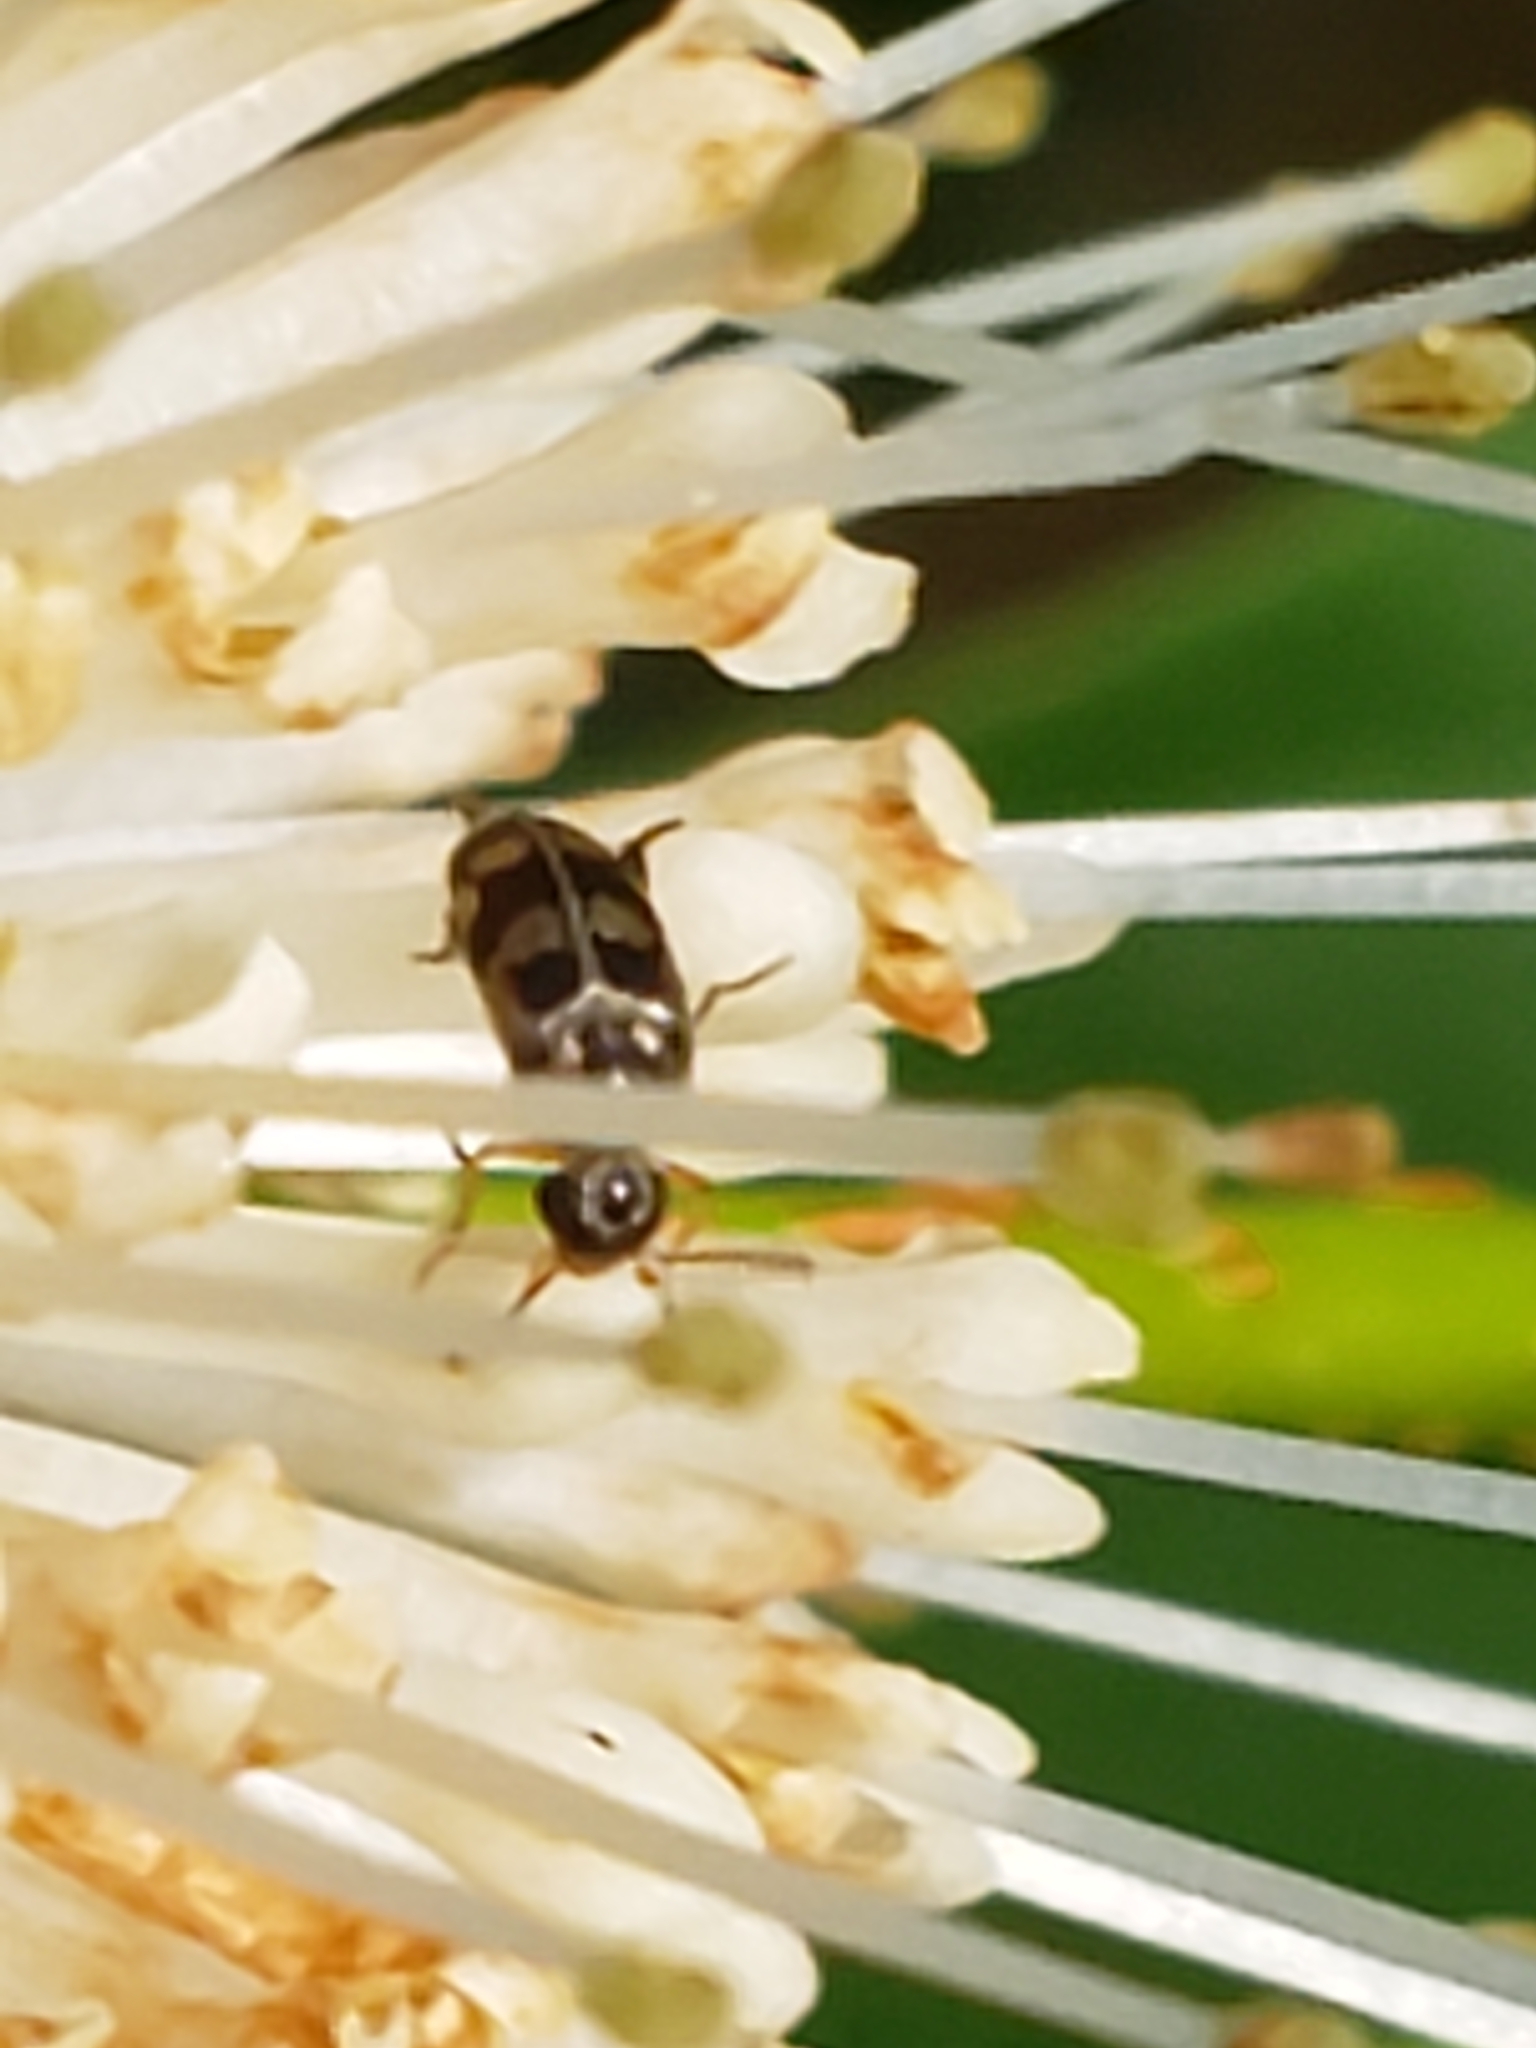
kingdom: Animalia
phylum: Arthropoda
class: Insecta
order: Coleoptera
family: Mordellidae
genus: Falsomordellistena
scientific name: Falsomordellistena pubescens
